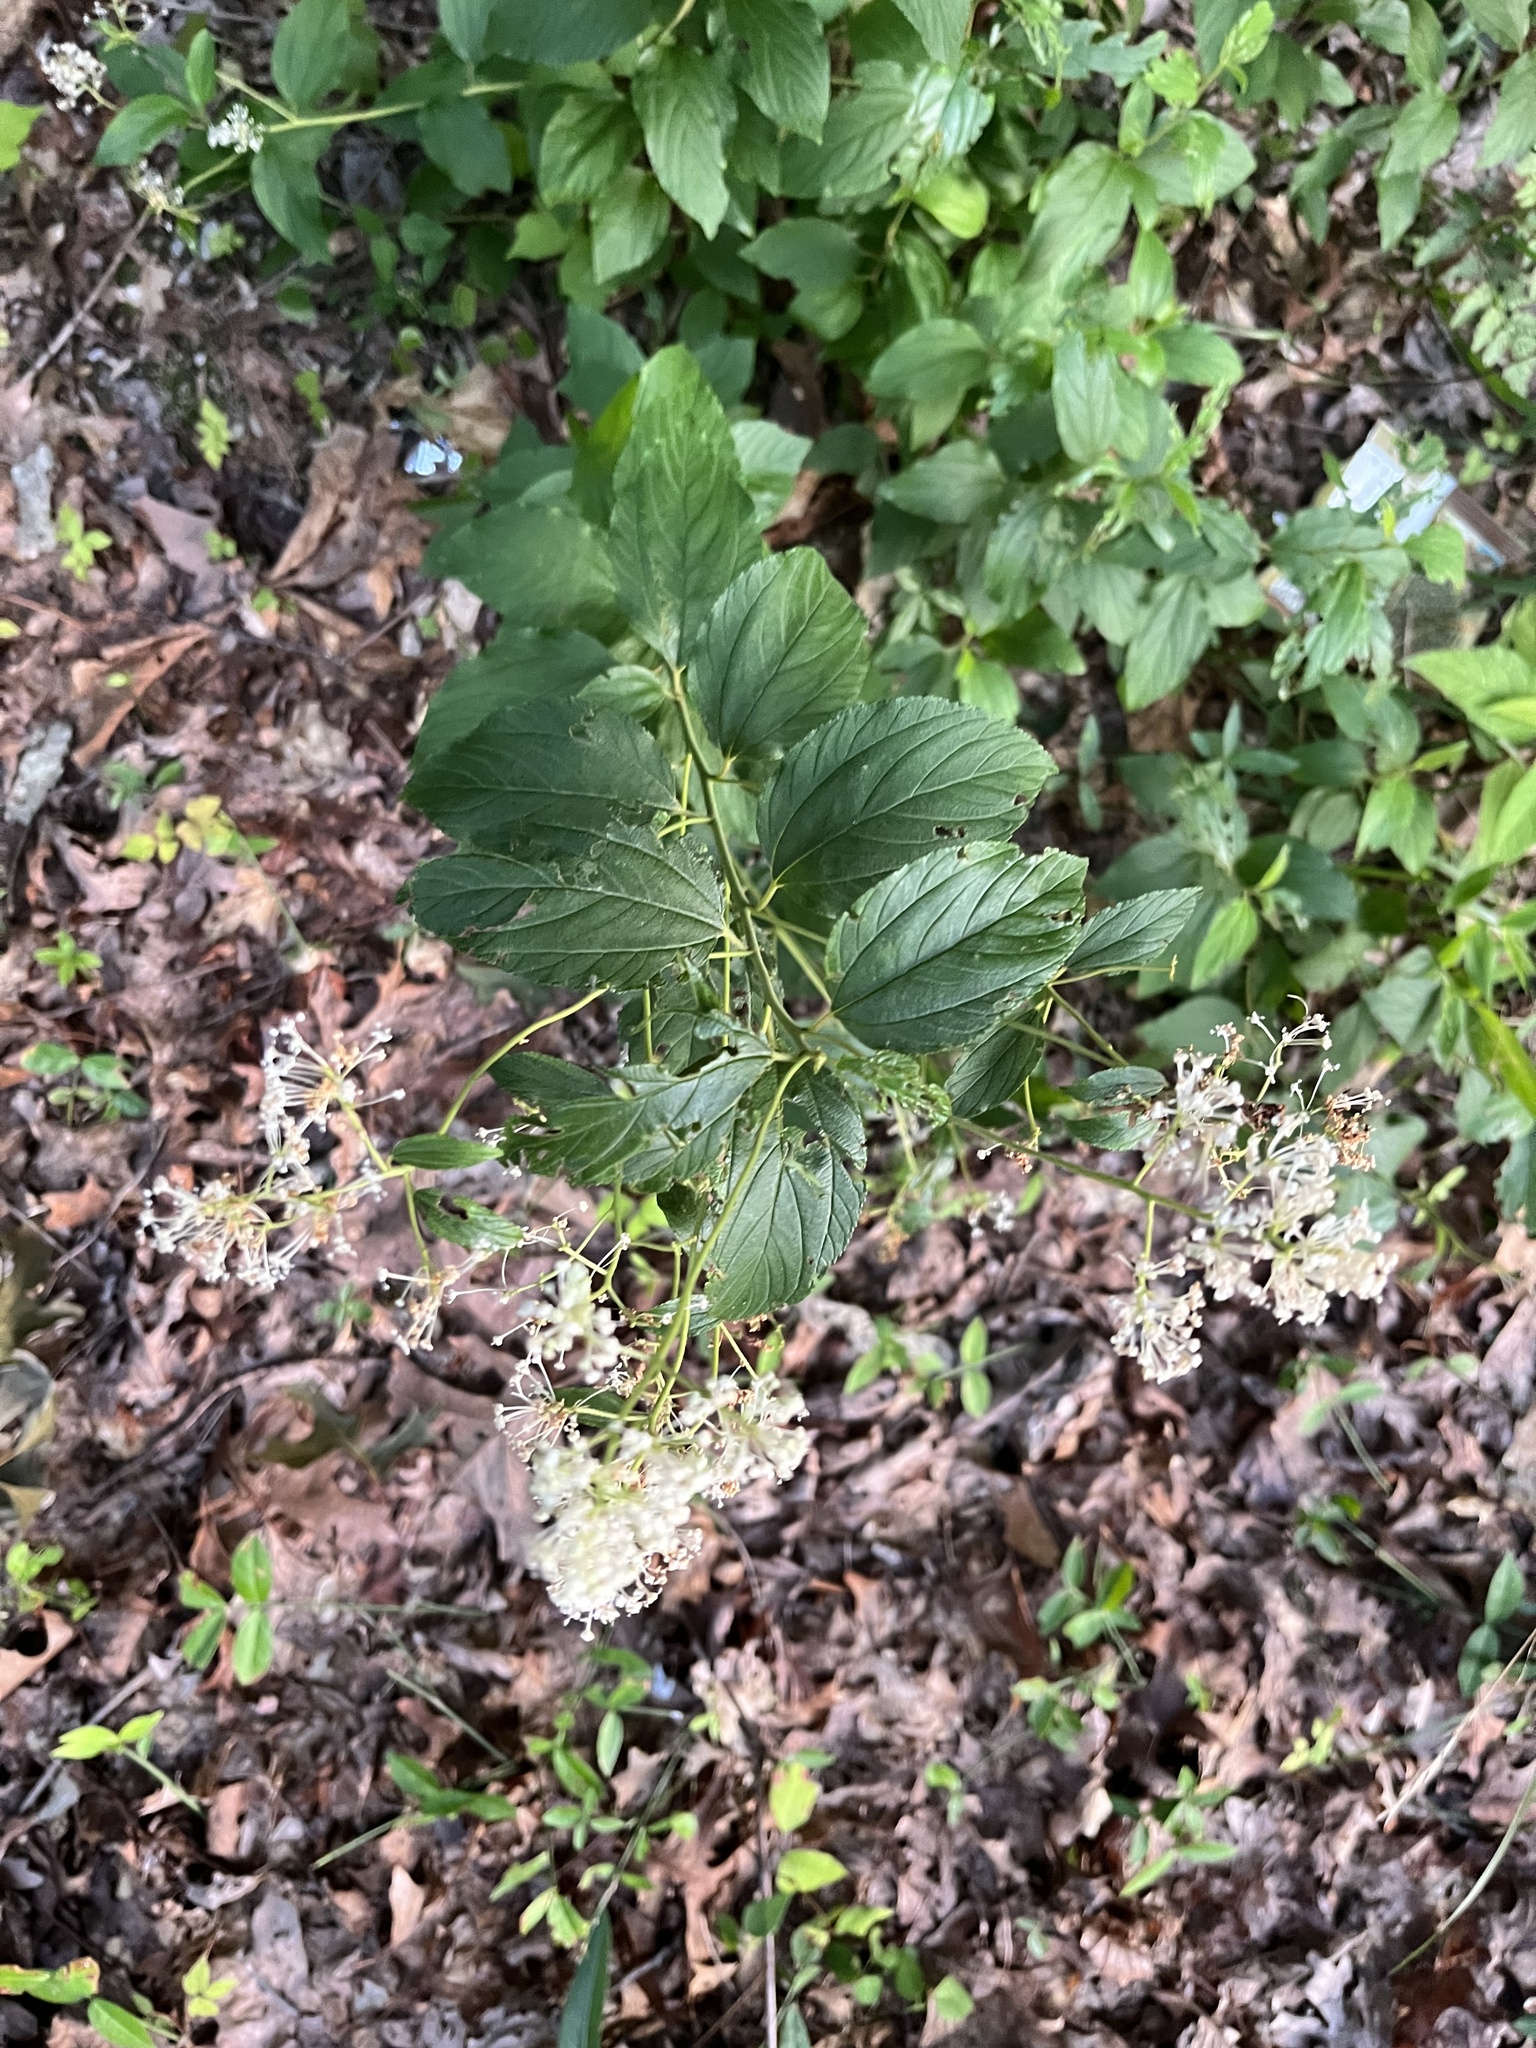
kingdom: Plantae
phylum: Tracheophyta
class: Magnoliopsida
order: Rosales
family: Rhamnaceae
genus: Ceanothus
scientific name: Ceanothus americanus
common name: Redroot
